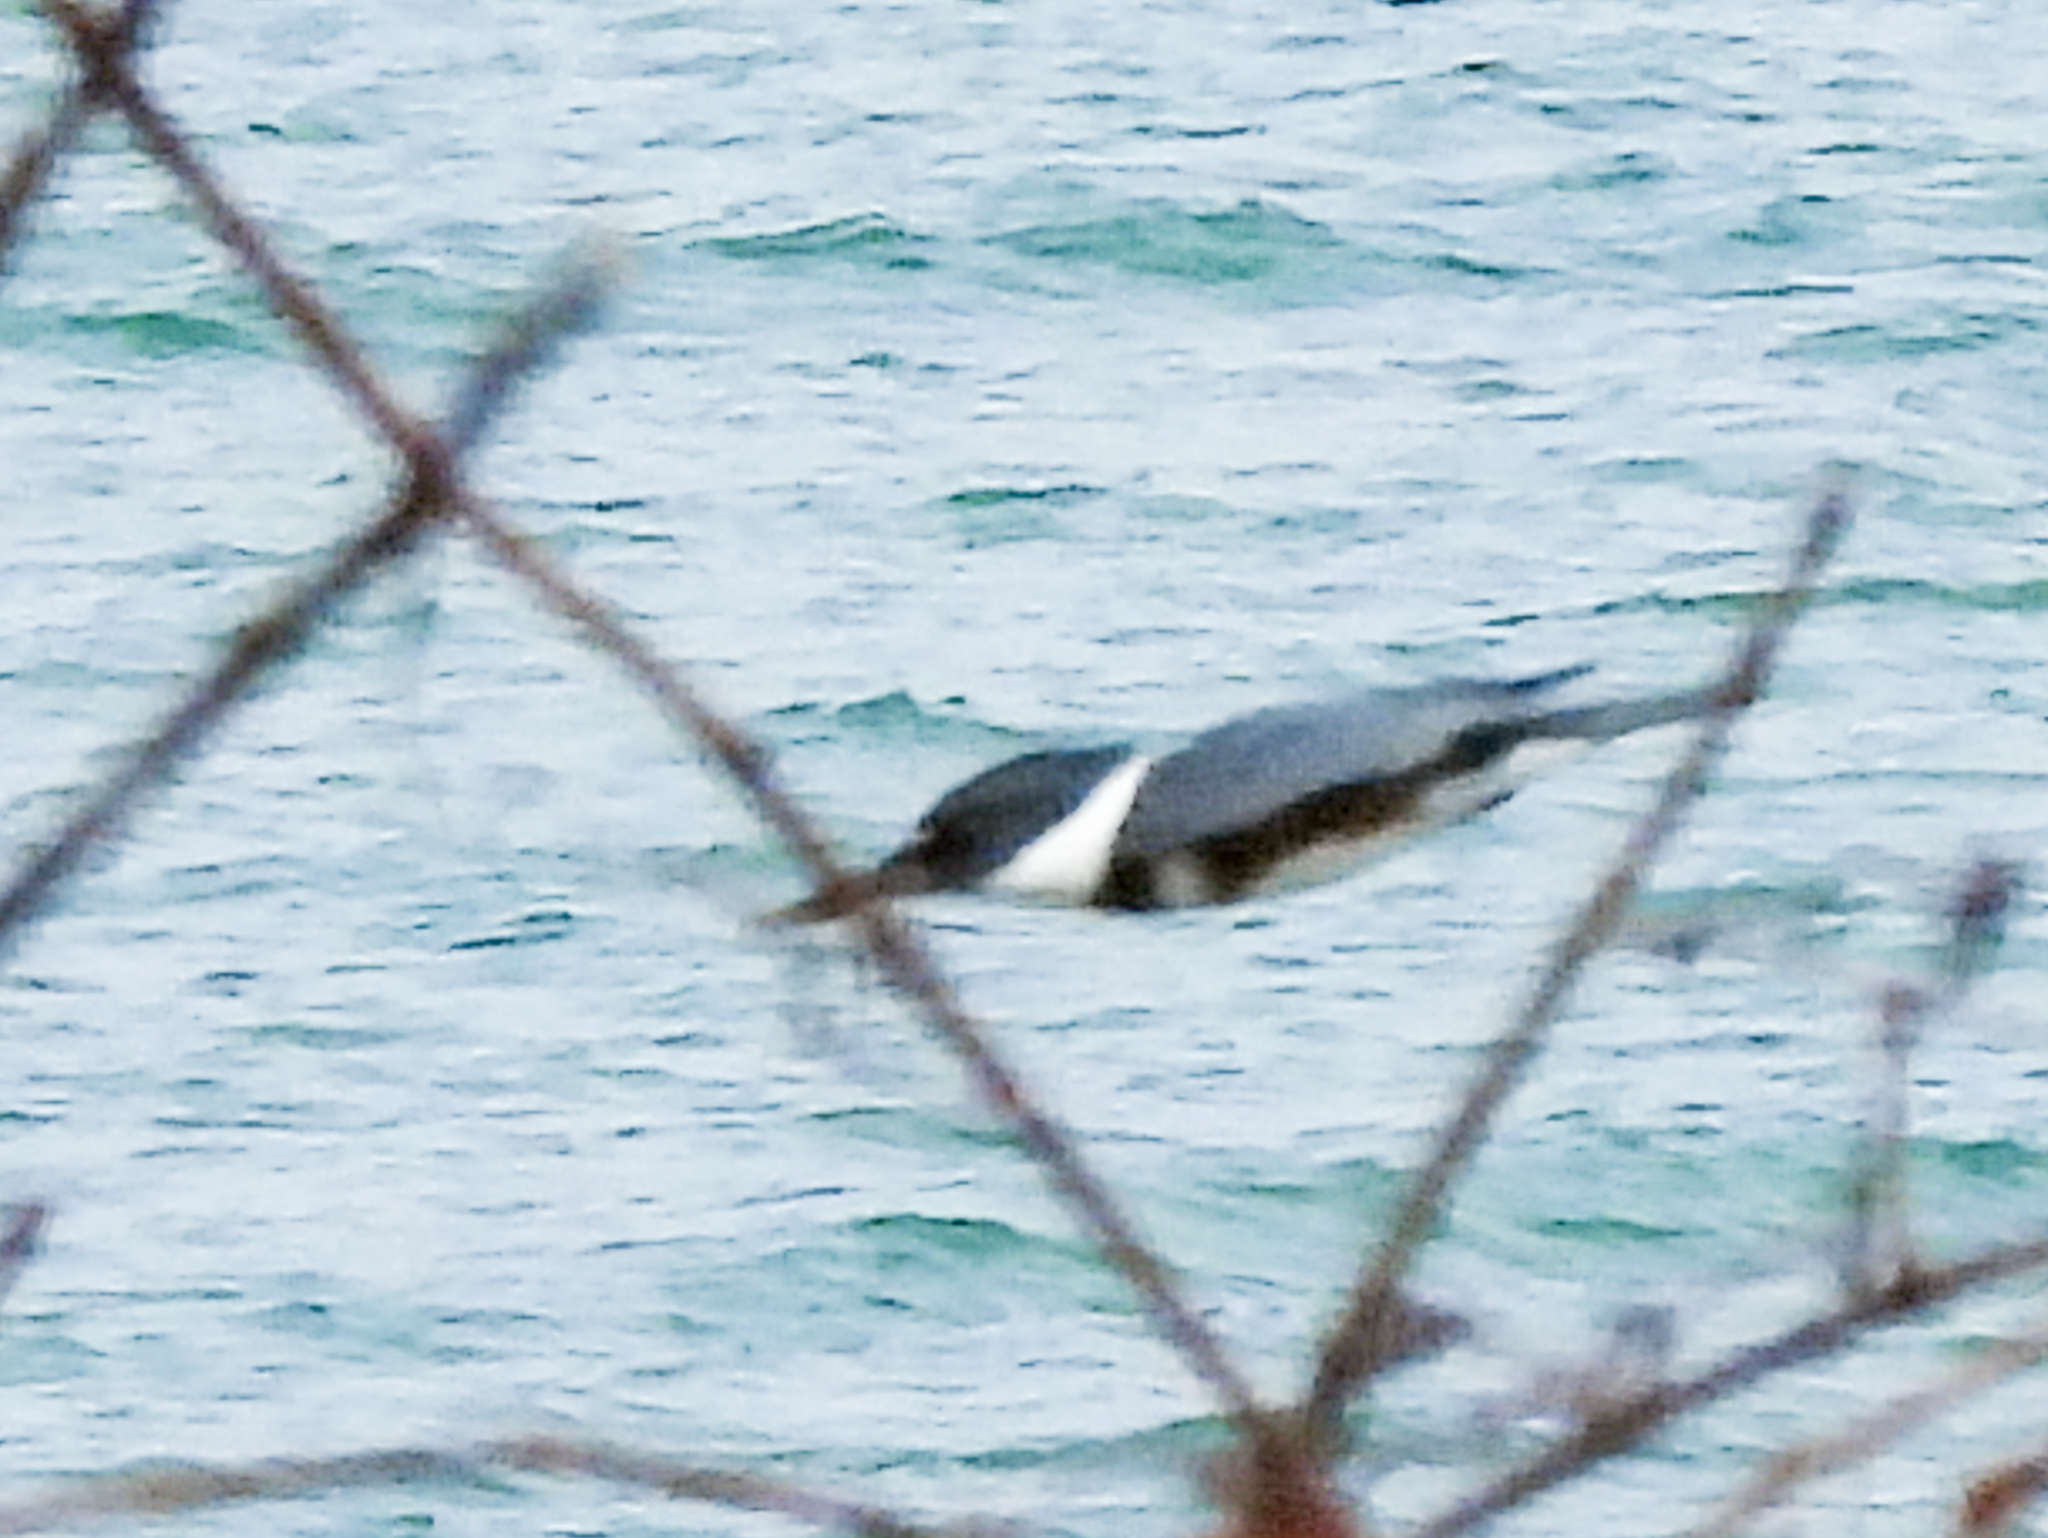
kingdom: Animalia
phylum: Chordata
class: Aves
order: Coraciiformes
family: Alcedinidae
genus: Megaceryle
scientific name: Megaceryle alcyon
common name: Belted kingfisher
